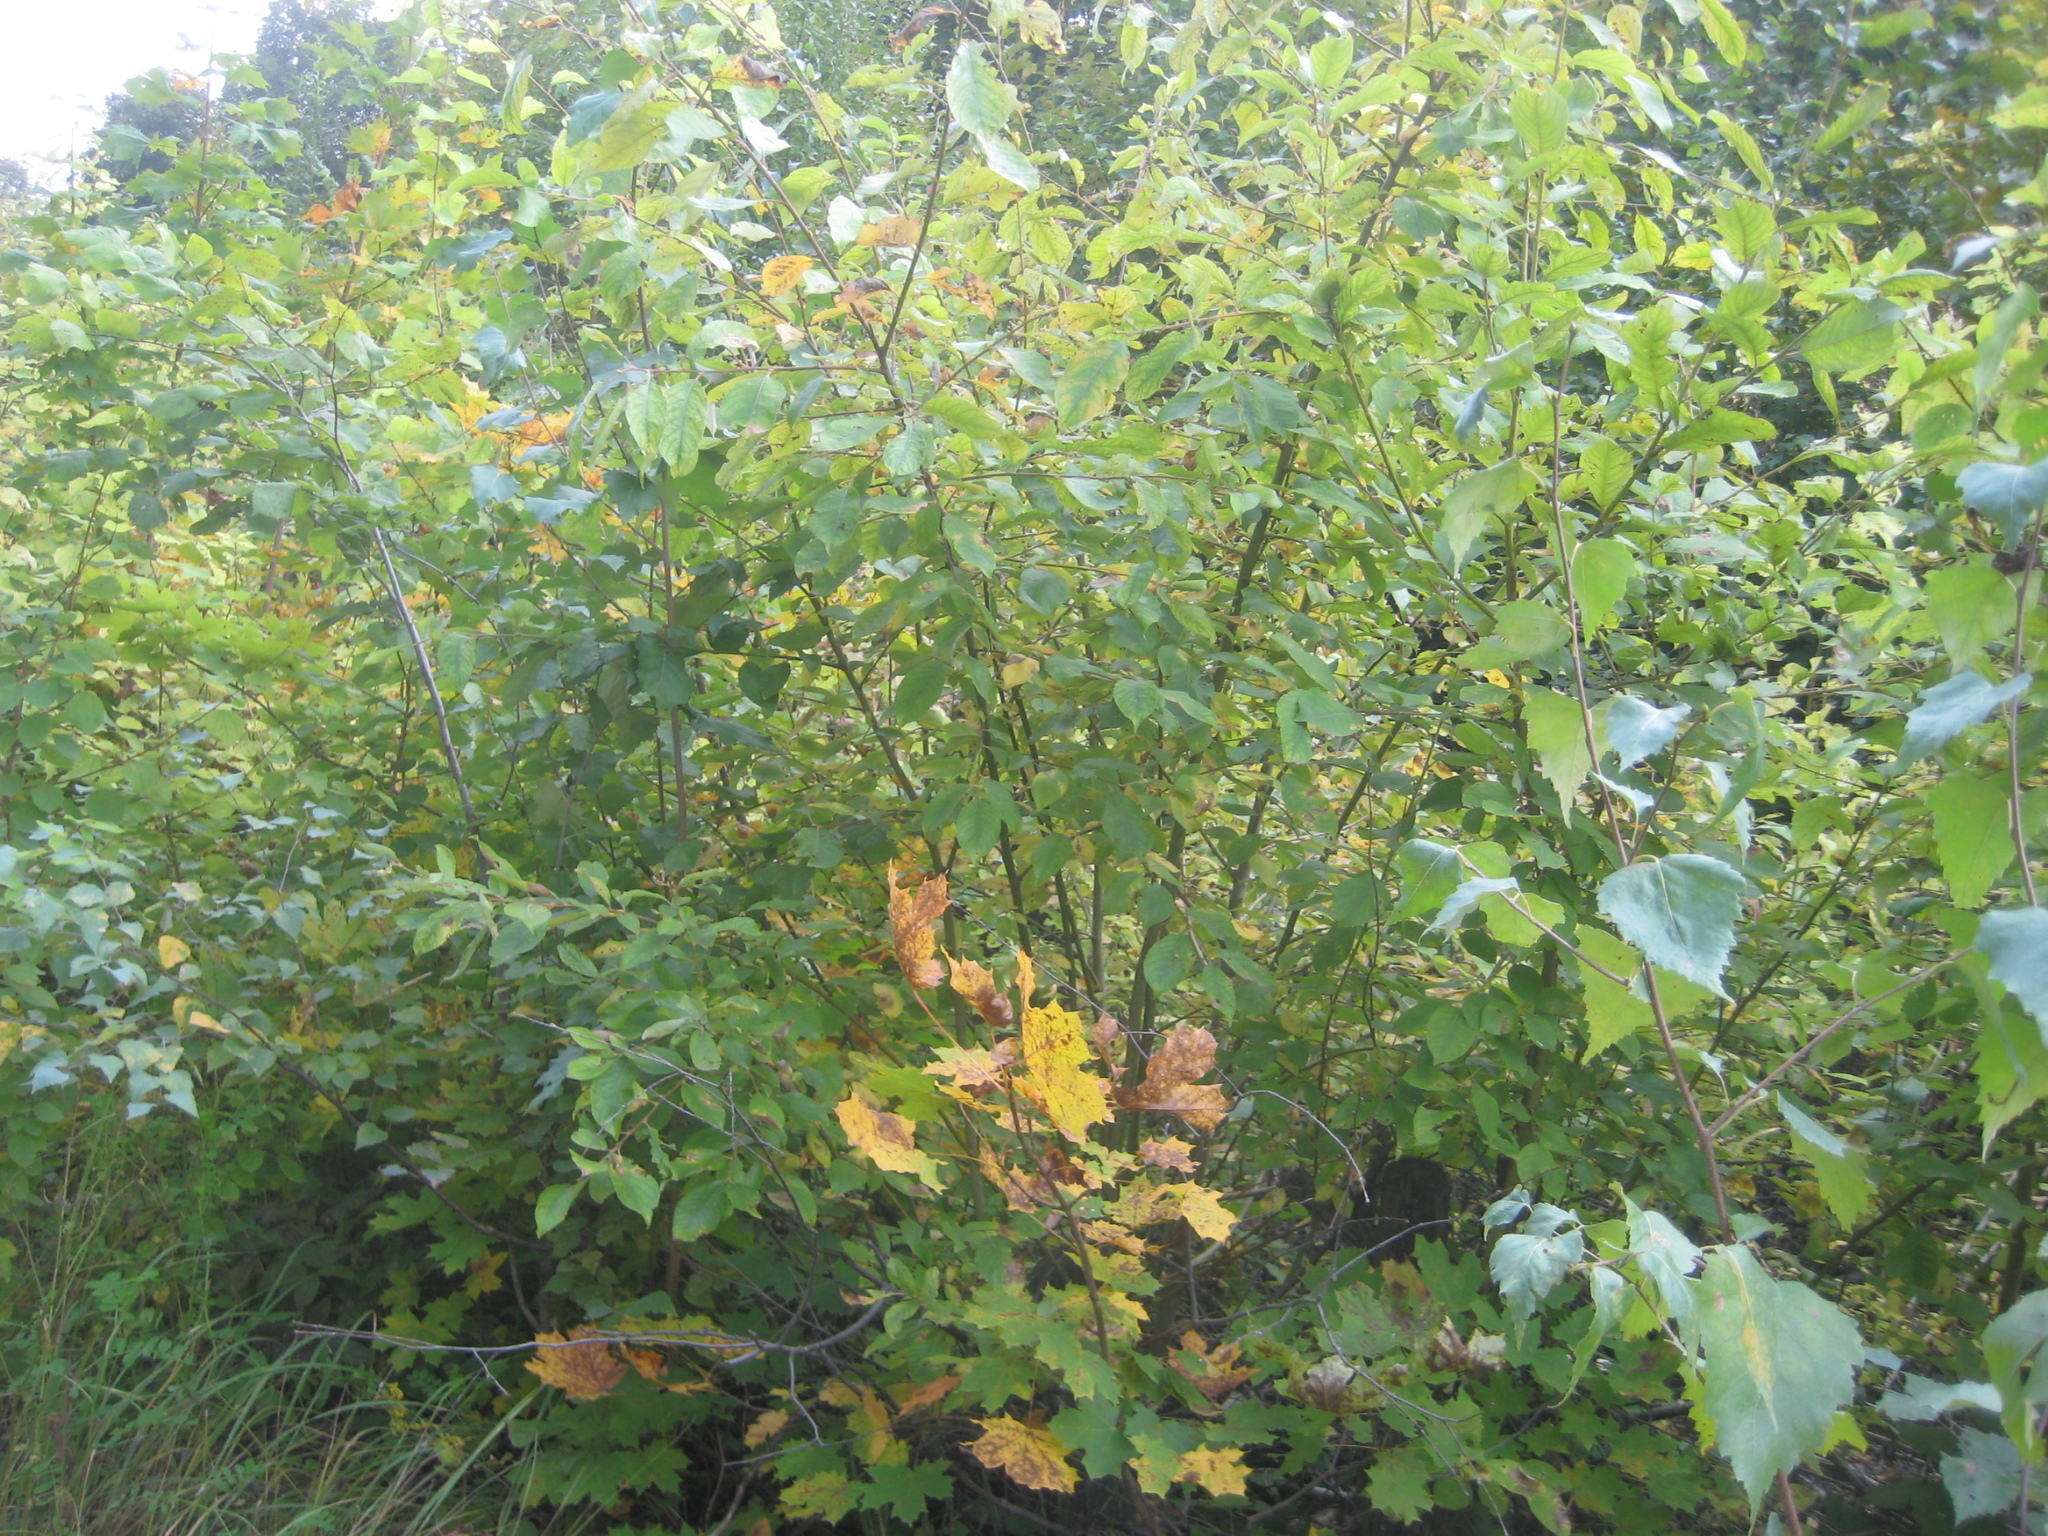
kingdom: Plantae
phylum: Tracheophyta
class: Magnoliopsida
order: Rosales
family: Rosaceae
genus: Prunus
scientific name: Prunus padus
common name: Bird cherry
